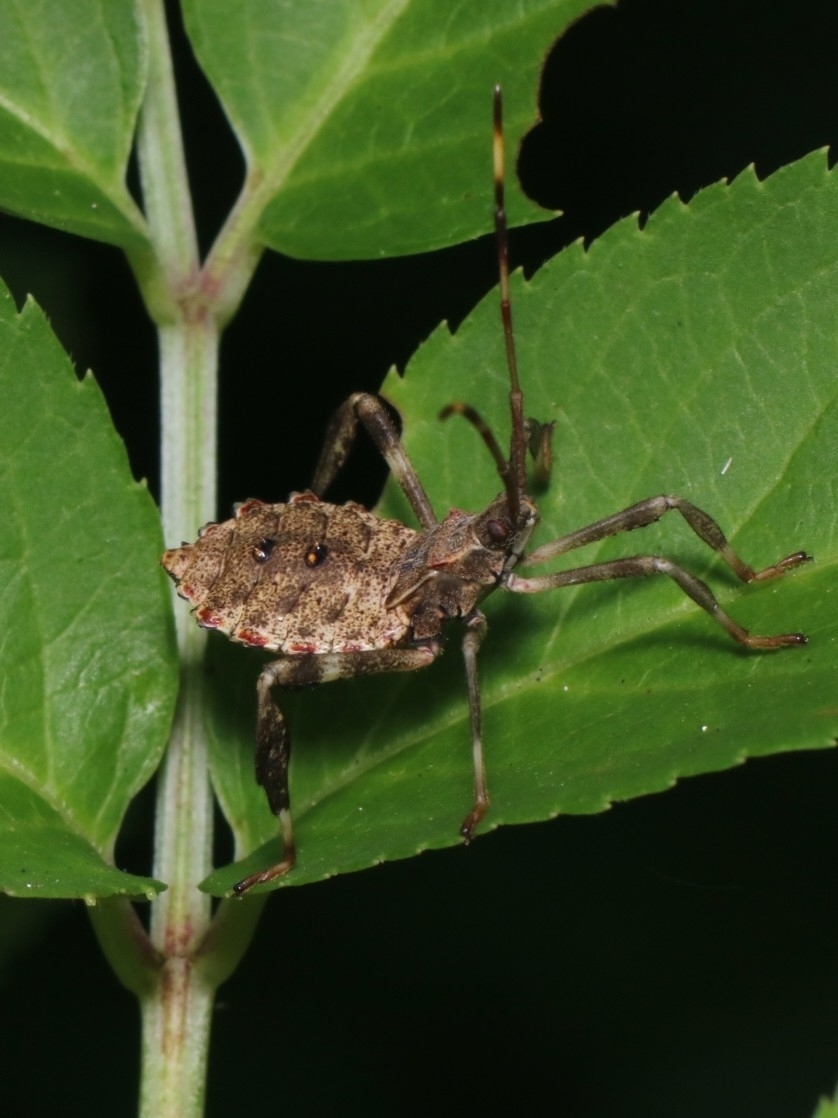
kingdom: Animalia
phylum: Arthropoda
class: Insecta
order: Hemiptera
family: Coreidae
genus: Acanthocephala
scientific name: Acanthocephala terminalis
